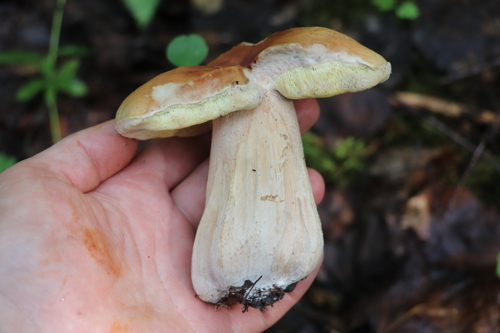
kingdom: Fungi
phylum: Basidiomycota
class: Agaricomycetes
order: Boletales
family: Boletaceae
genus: Boletus
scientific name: Boletus edulis
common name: Cep
